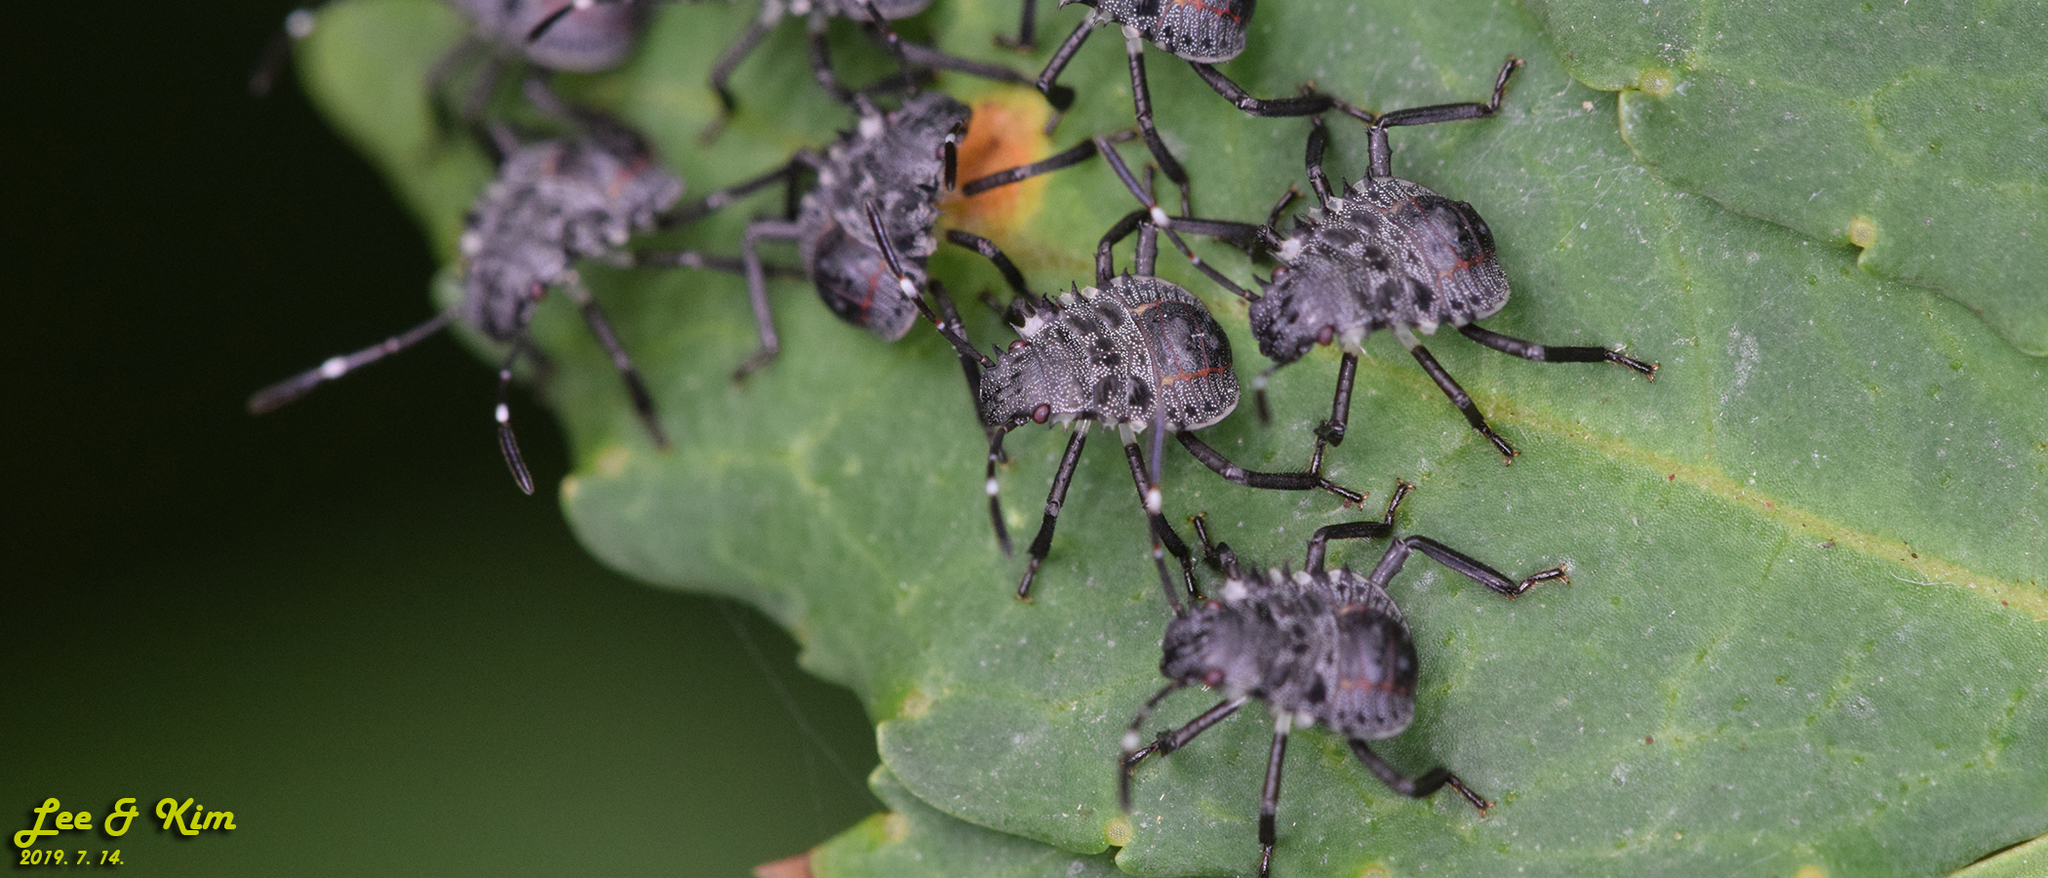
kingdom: Animalia
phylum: Arthropoda
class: Insecta
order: Hemiptera
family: Pentatomidae
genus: Halyomorpha
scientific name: Halyomorpha halys
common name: Brown marmorated stink bug
